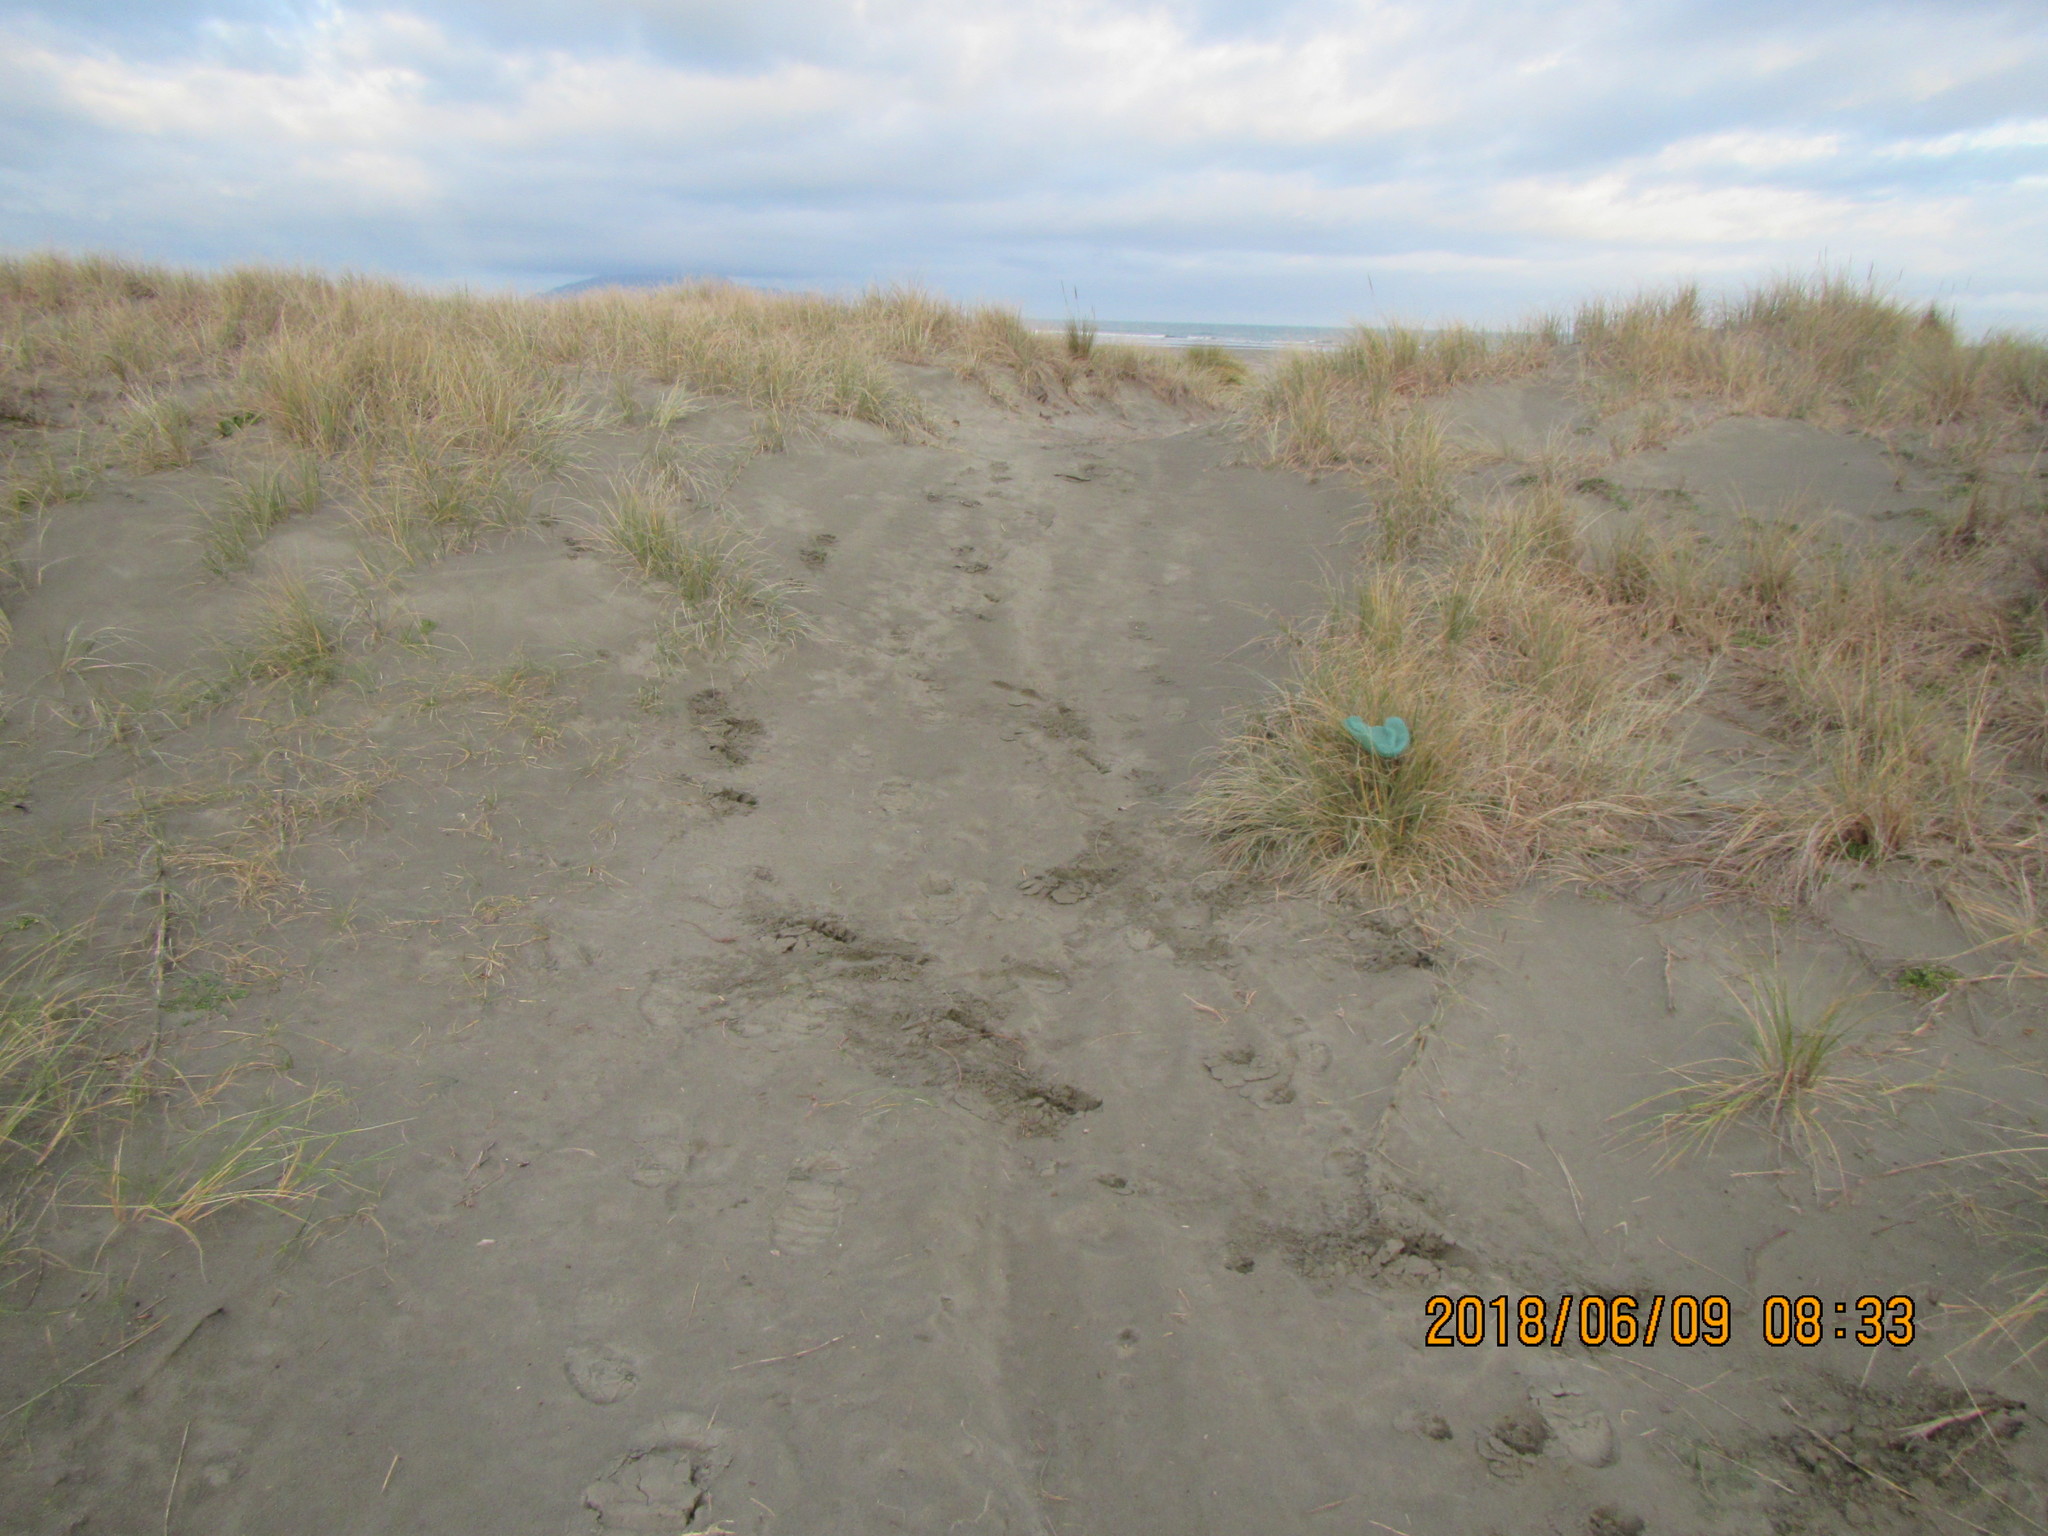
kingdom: Animalia
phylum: Arthropoda
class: Malacostraca
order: Isopoda
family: Porcellionidae
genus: Porcellio
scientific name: Porcellio scaber
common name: Common rough woodlouse
